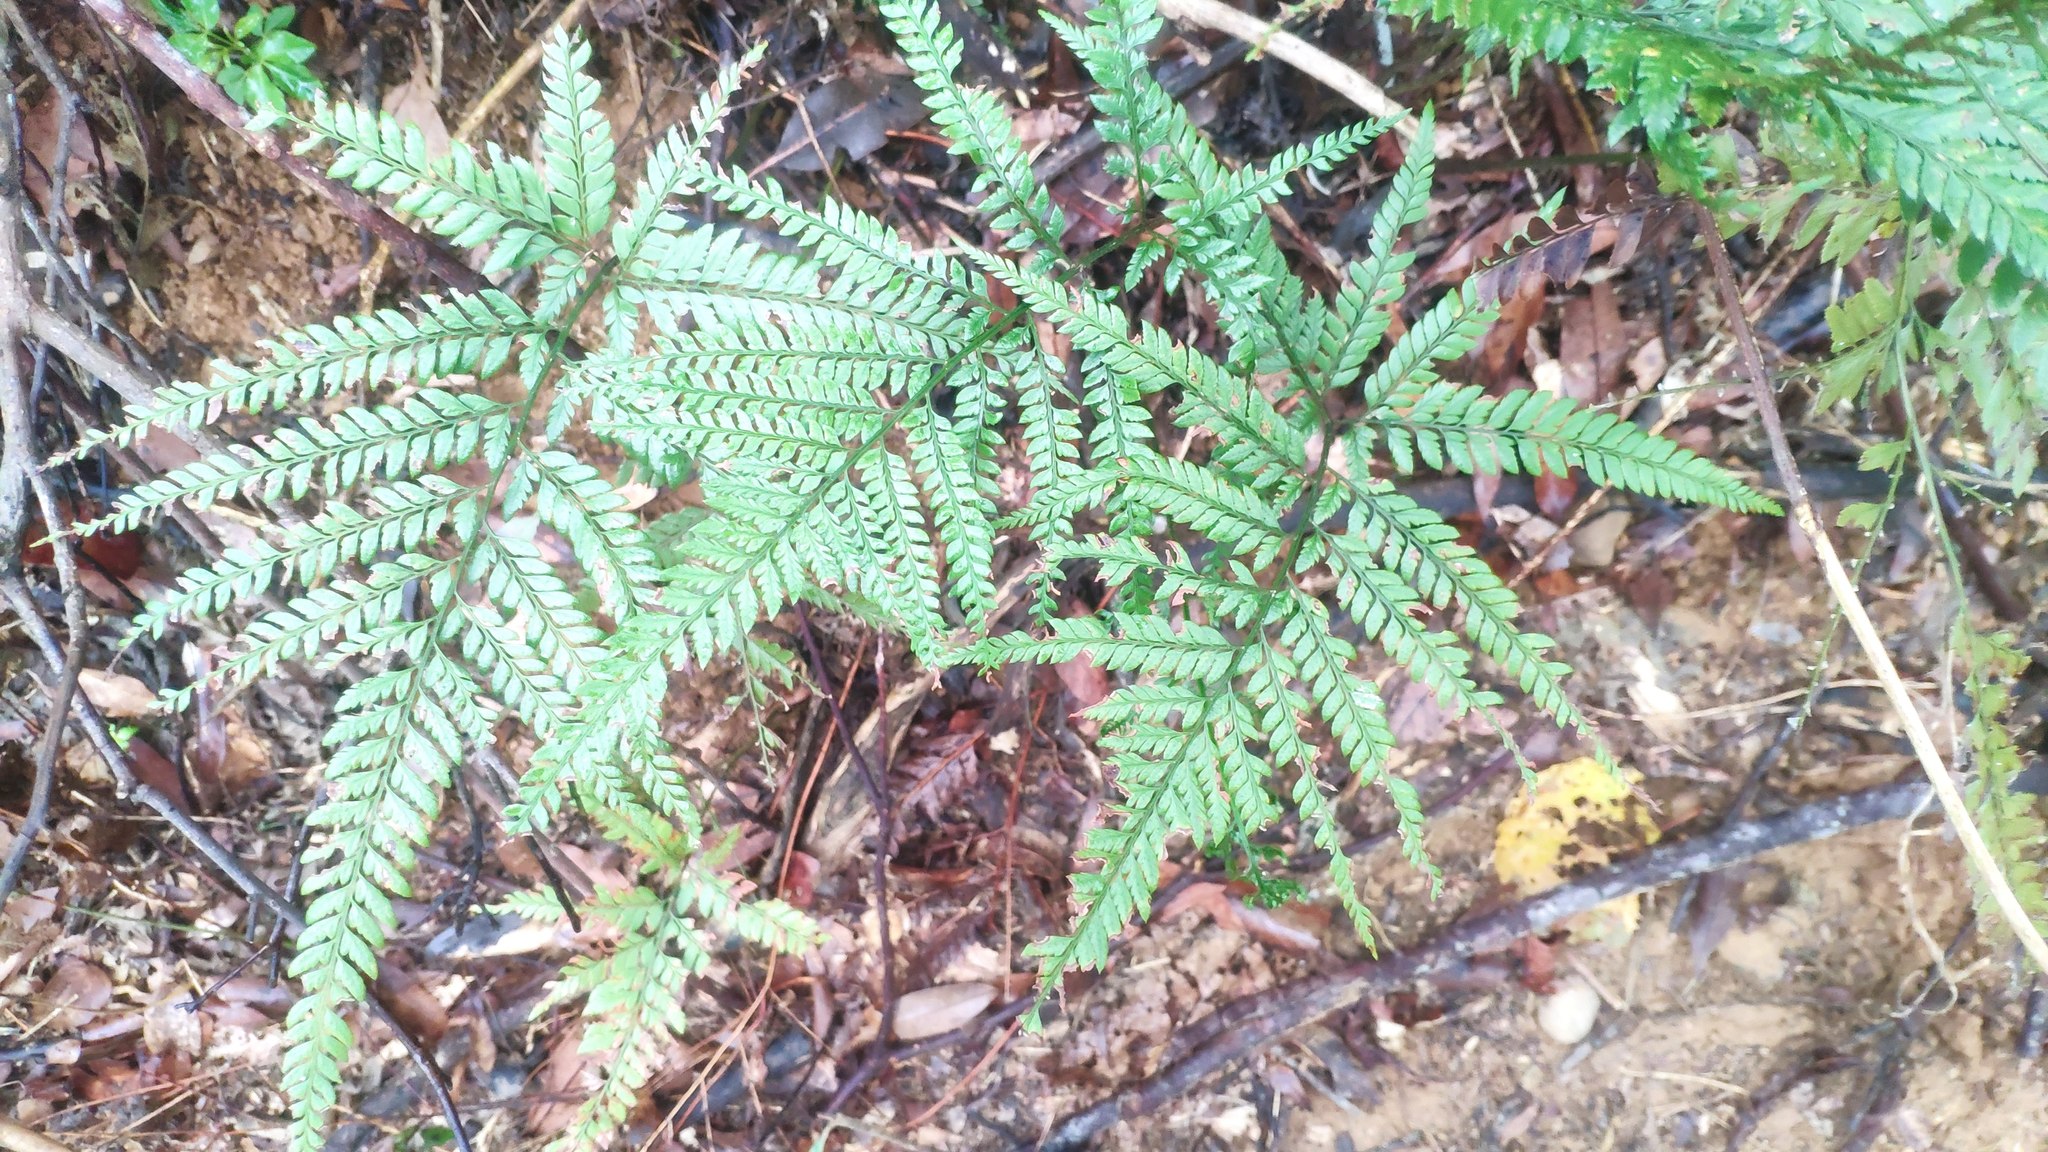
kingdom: Plantae
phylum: Tracheophyta
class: Polypodiopsida
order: Polypodiales
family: Dryopteridaceae
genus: Arachniodes
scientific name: Arachniodes aristata
